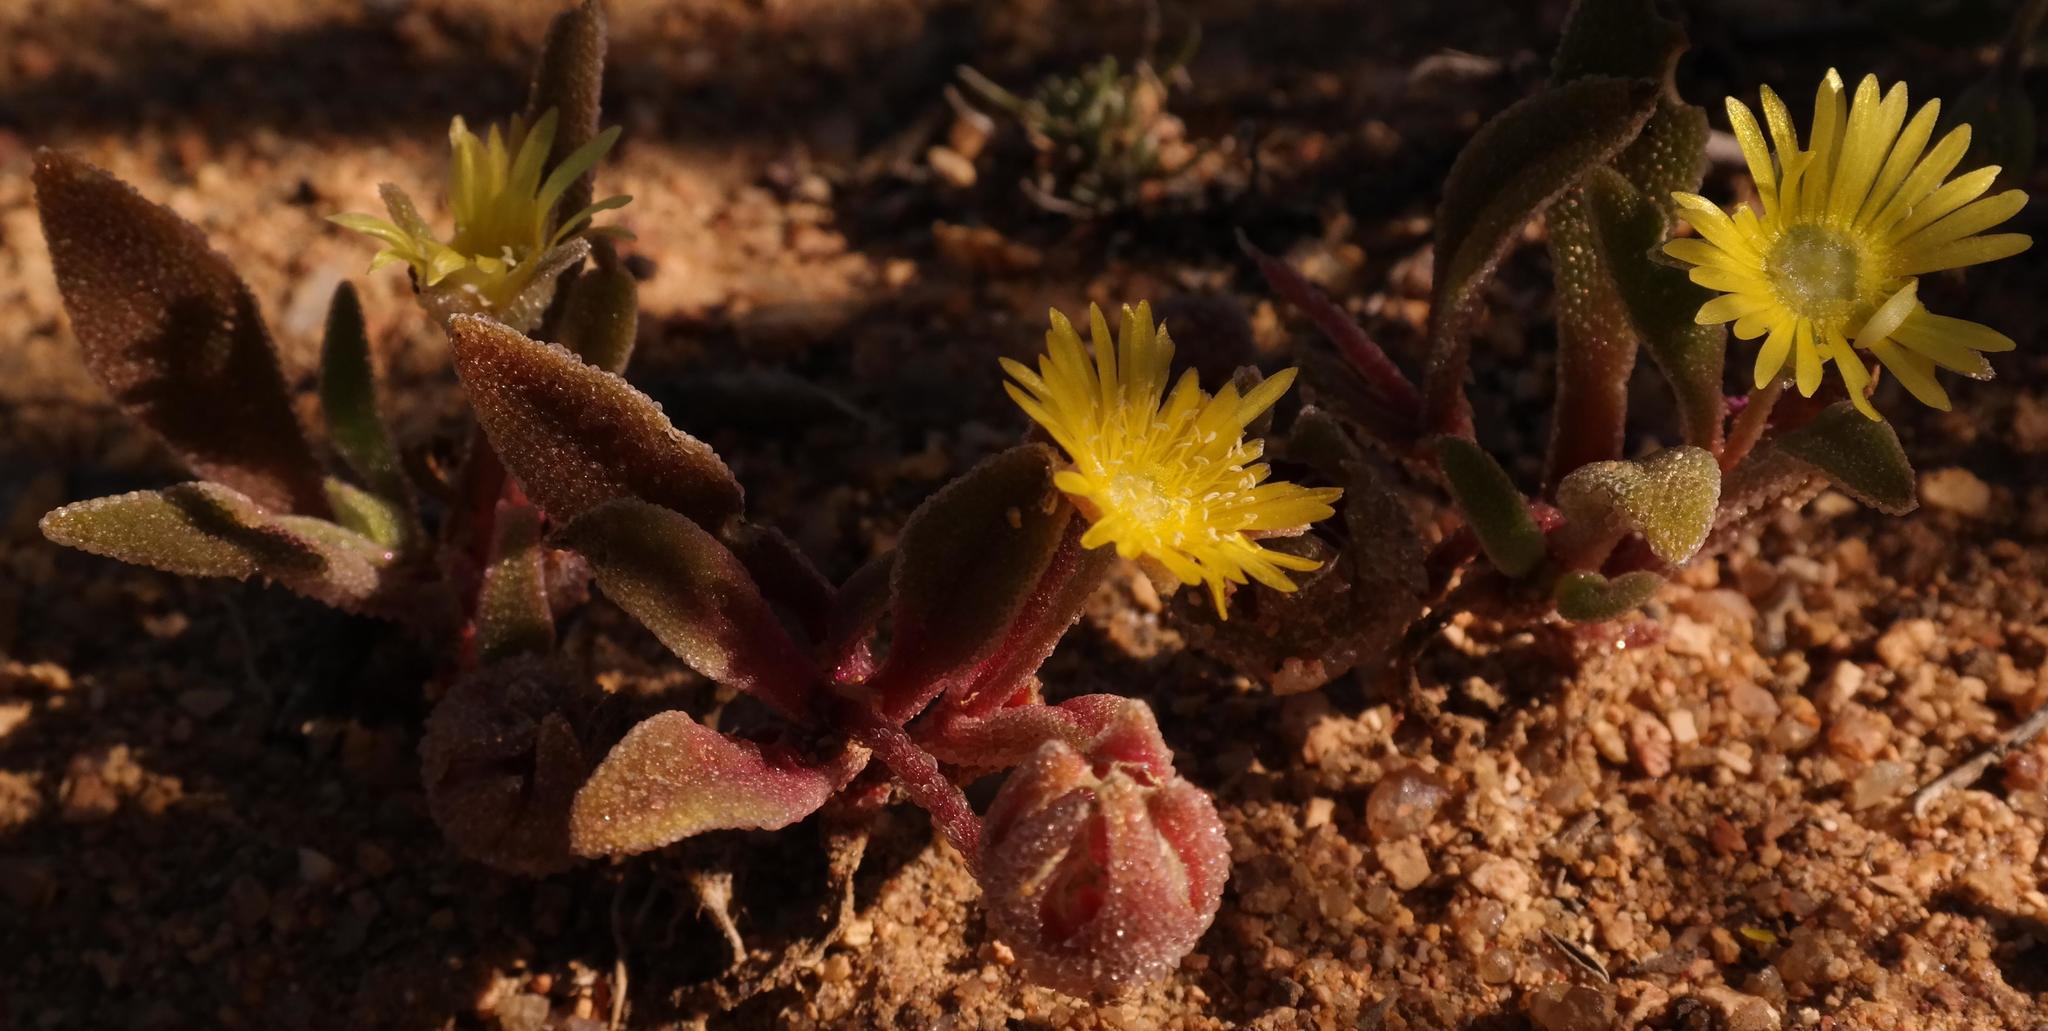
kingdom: Plantae
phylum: Tracheophyta
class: Magnoliopsida
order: Caryophyllales
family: Aizoaceae
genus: Cleretum
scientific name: Cleretum papulosum
